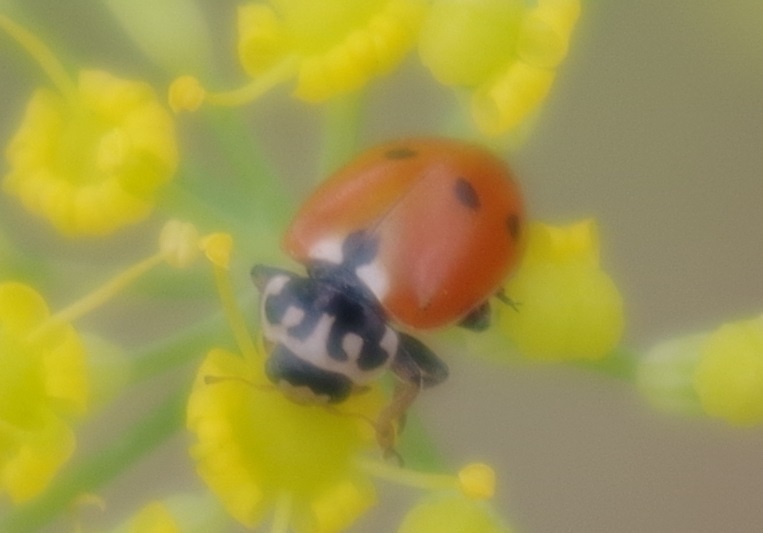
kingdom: Animalia
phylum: Arthropoda
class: Insecta
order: Coleoptera
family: Coccinellidae
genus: Hippodamia
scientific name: Hippodamia variegata
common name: Ladybird beetle
